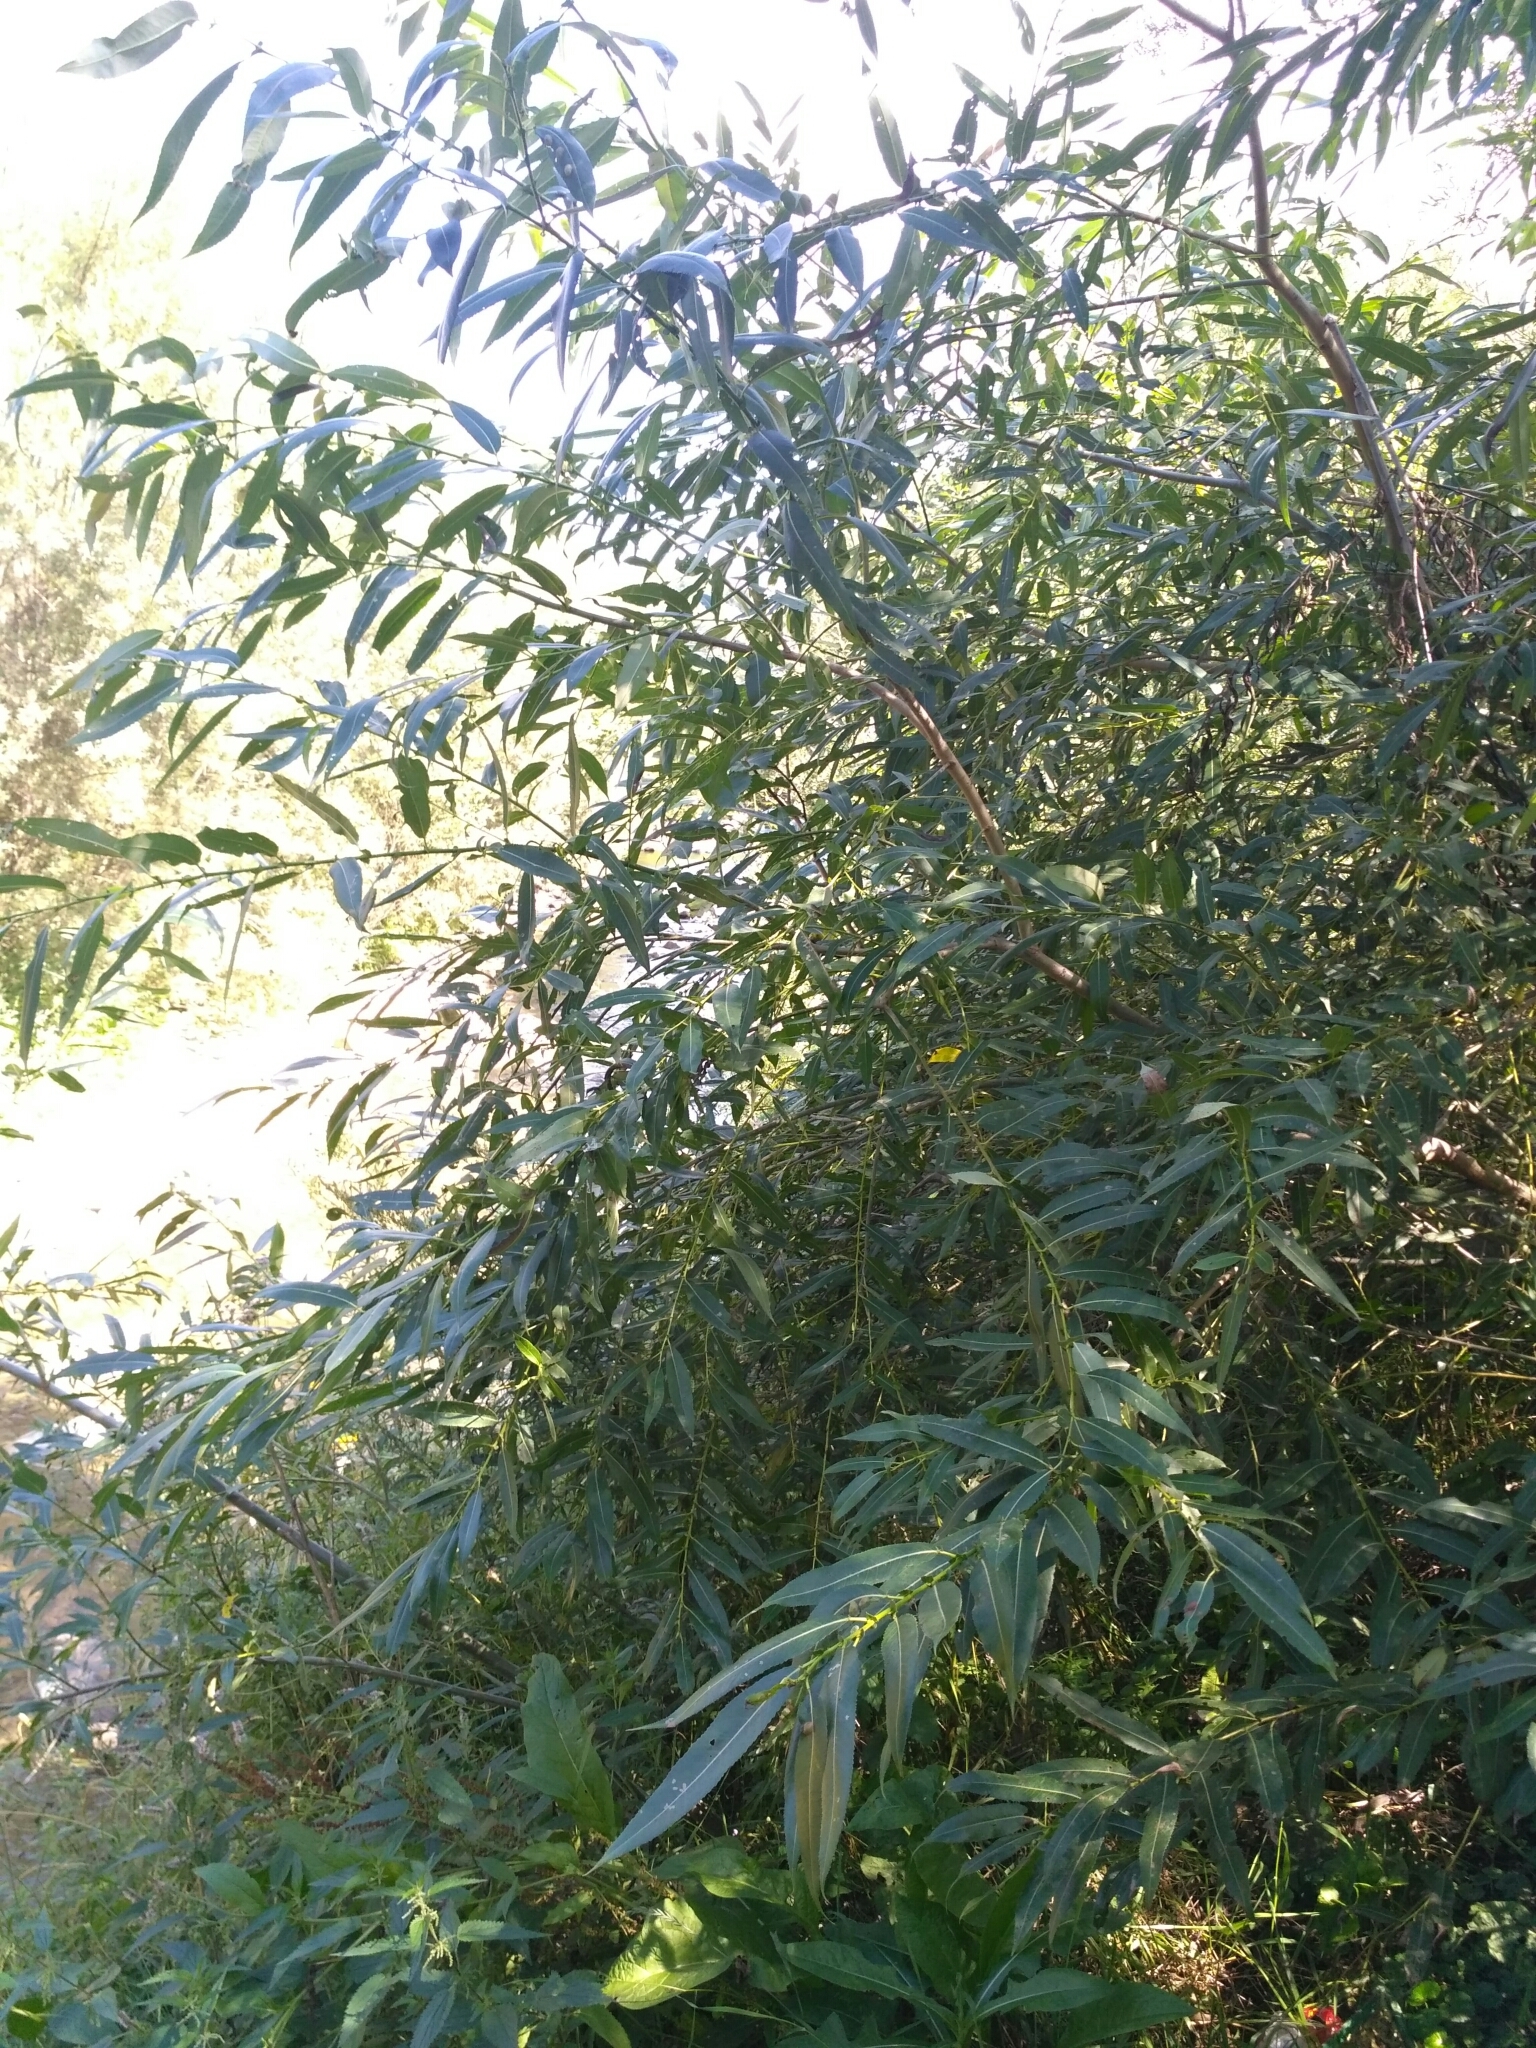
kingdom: Plantae
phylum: Tracheophyta
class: Magnoliopsida
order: Malpighiales
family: Salicaceae
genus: Salix
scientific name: Salix fragilis
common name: Crack willow
